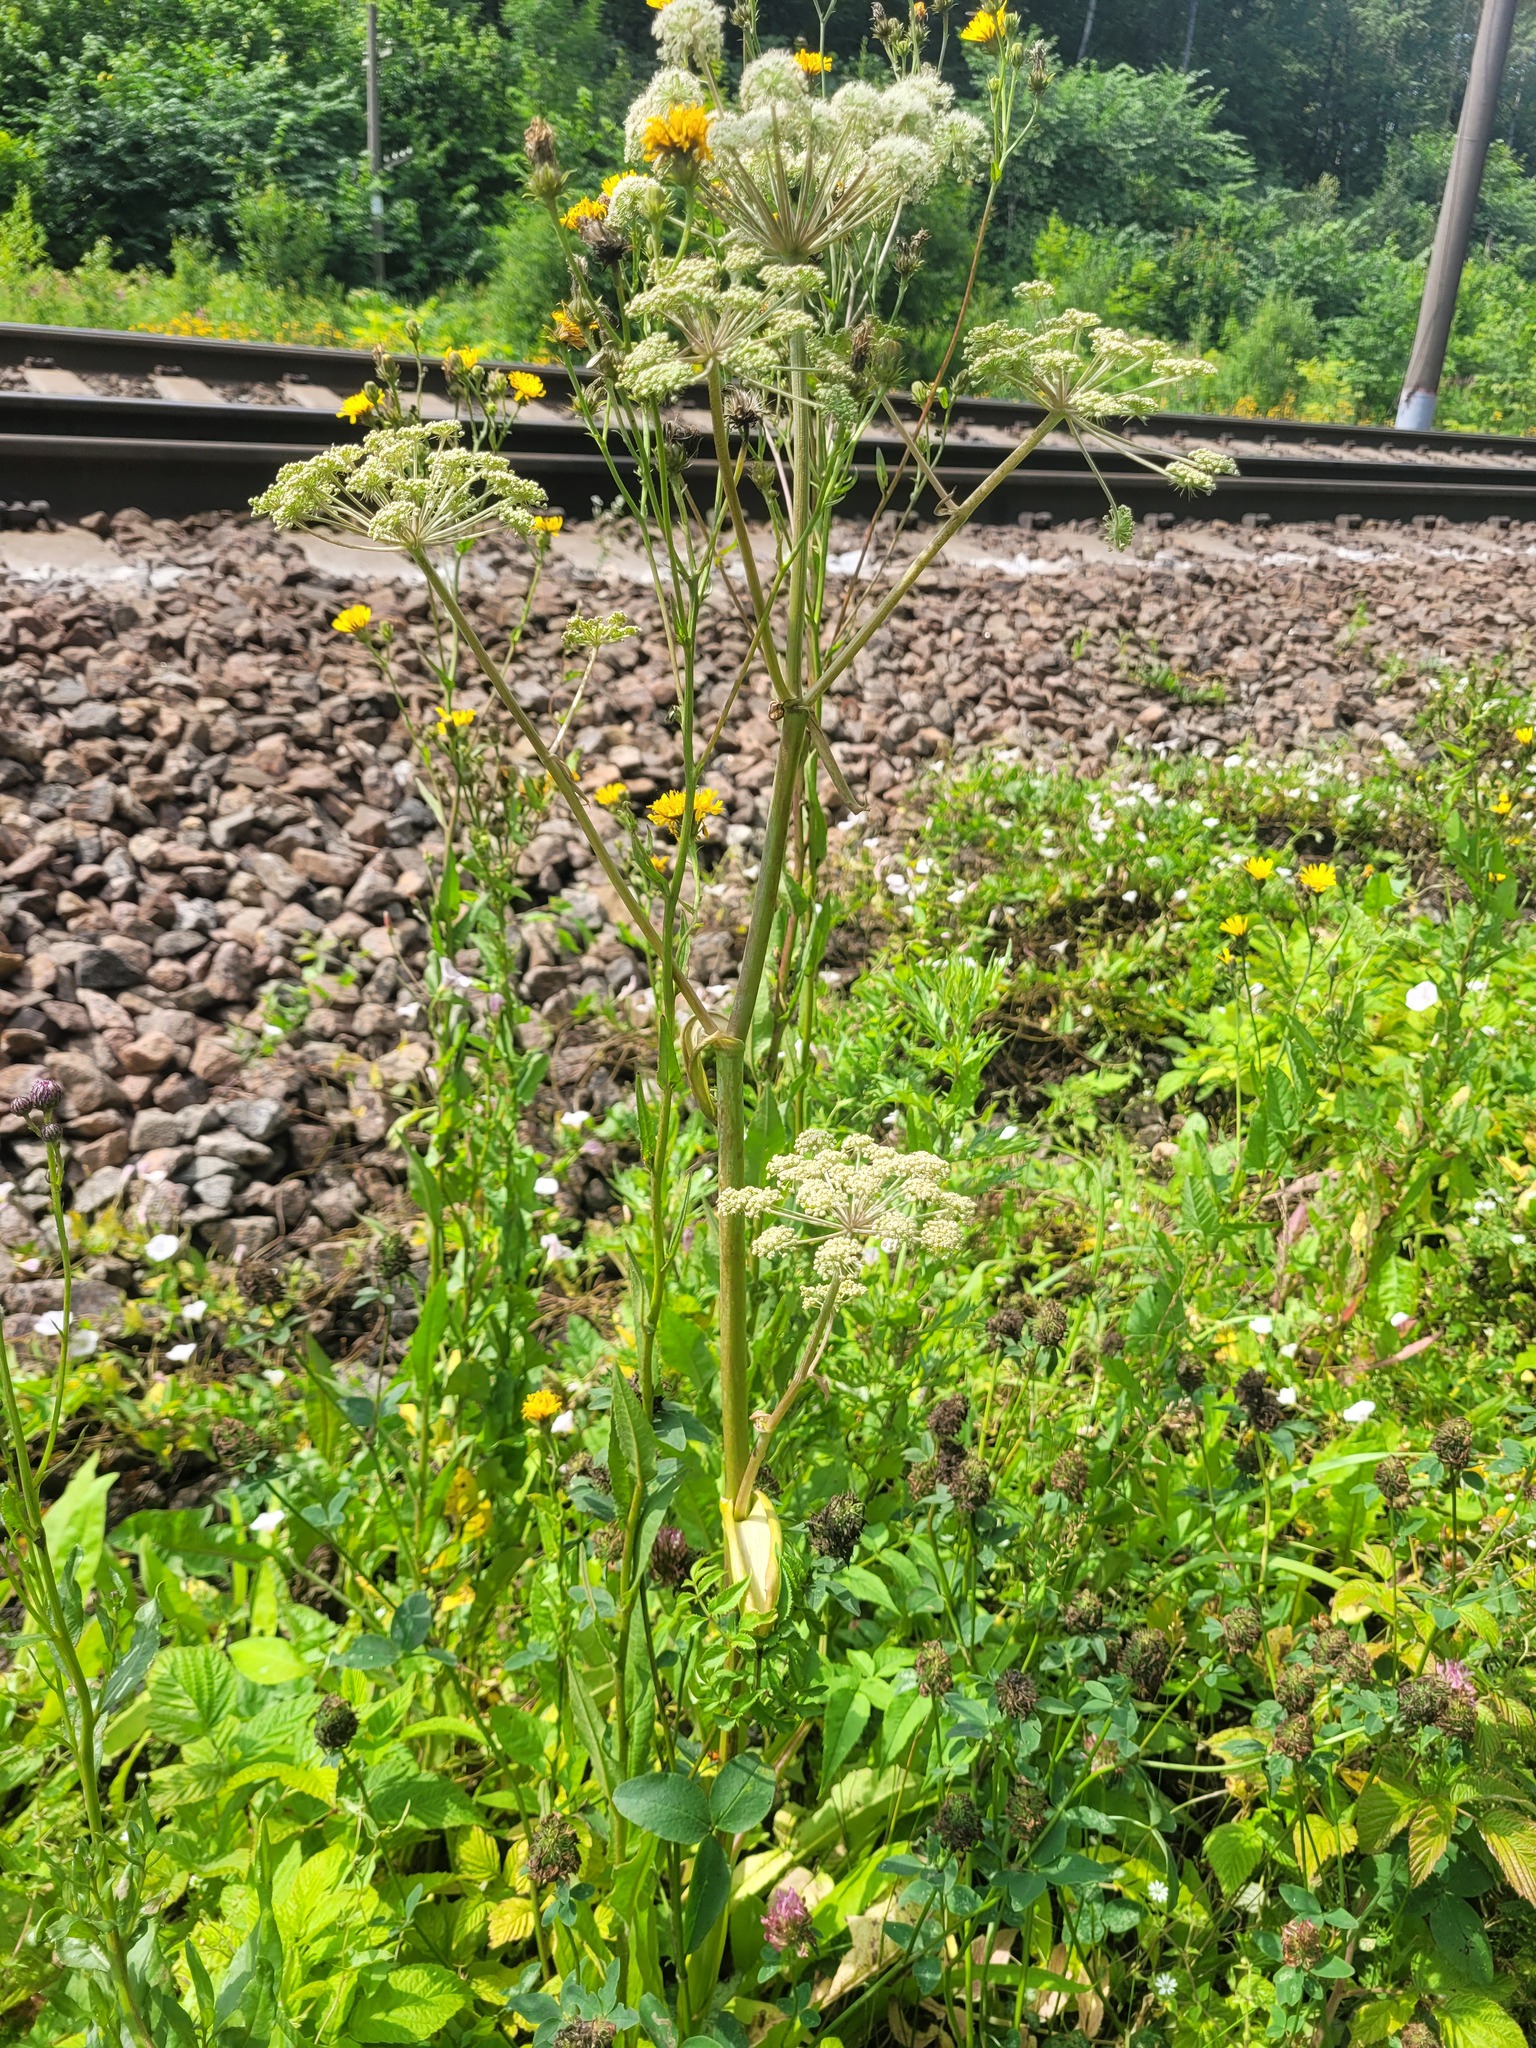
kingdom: Plantae
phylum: Tracheophyta
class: Magnoliopsida
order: Apiales
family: Apiaceae
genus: Angelica
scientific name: Angelica sylvestris
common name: Wild angelica
